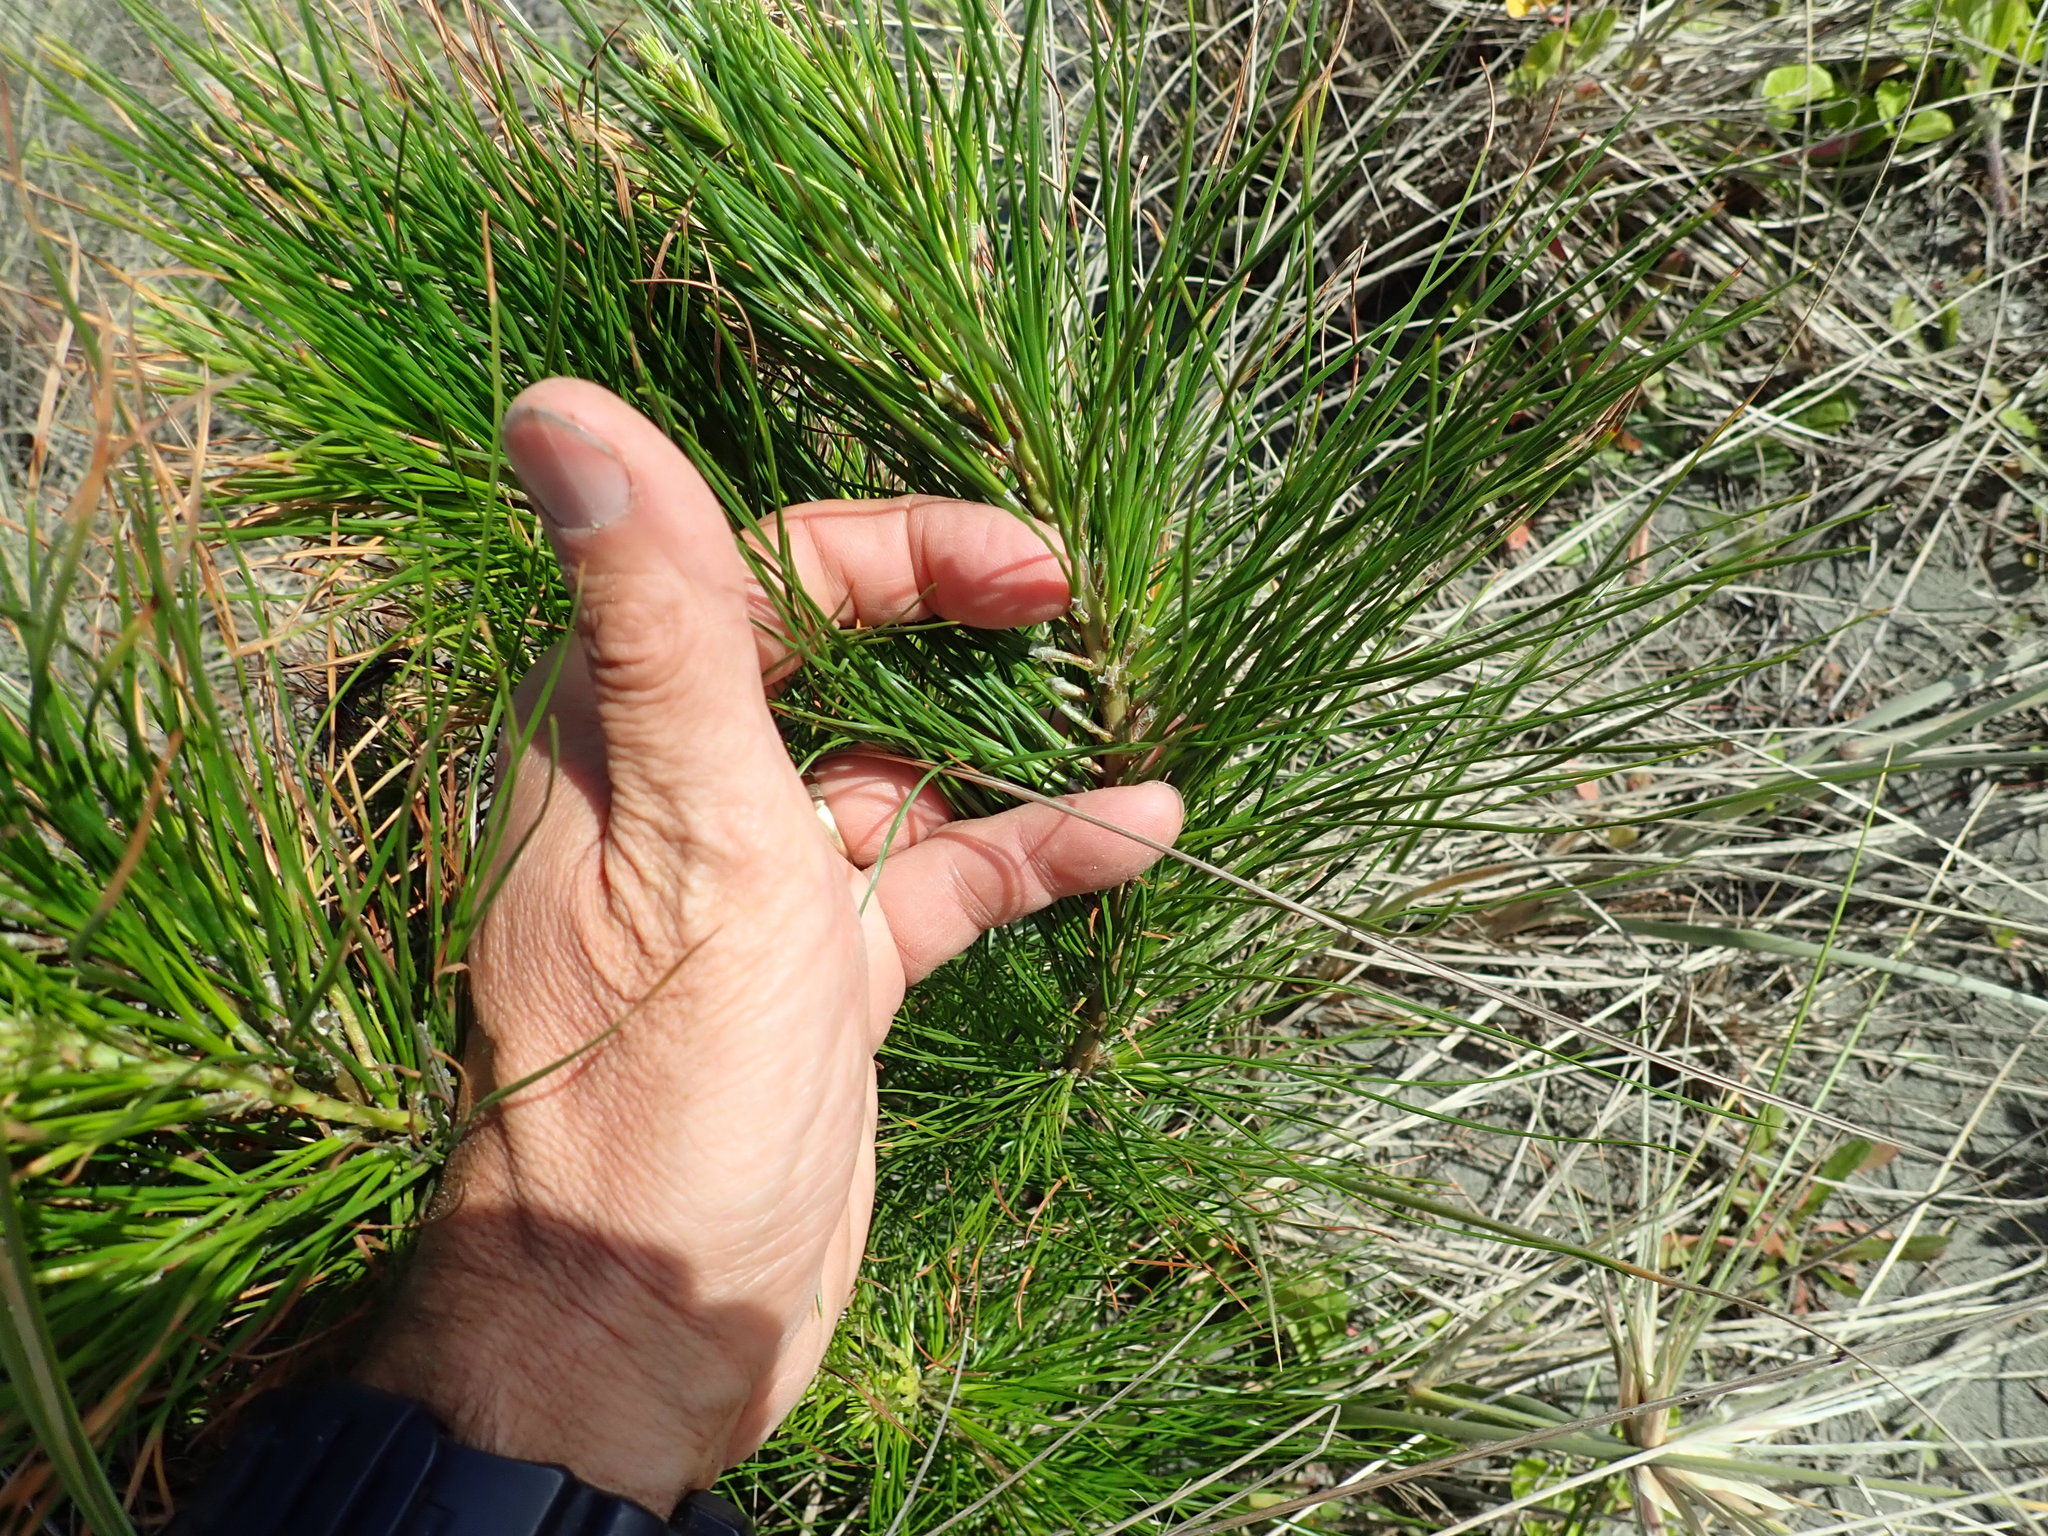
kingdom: Plantae
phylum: Tracheophyta
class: Pinopsida
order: Pinales
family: Pinaceae
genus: Pinus
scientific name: Pinus radiata
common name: Monterey pine
